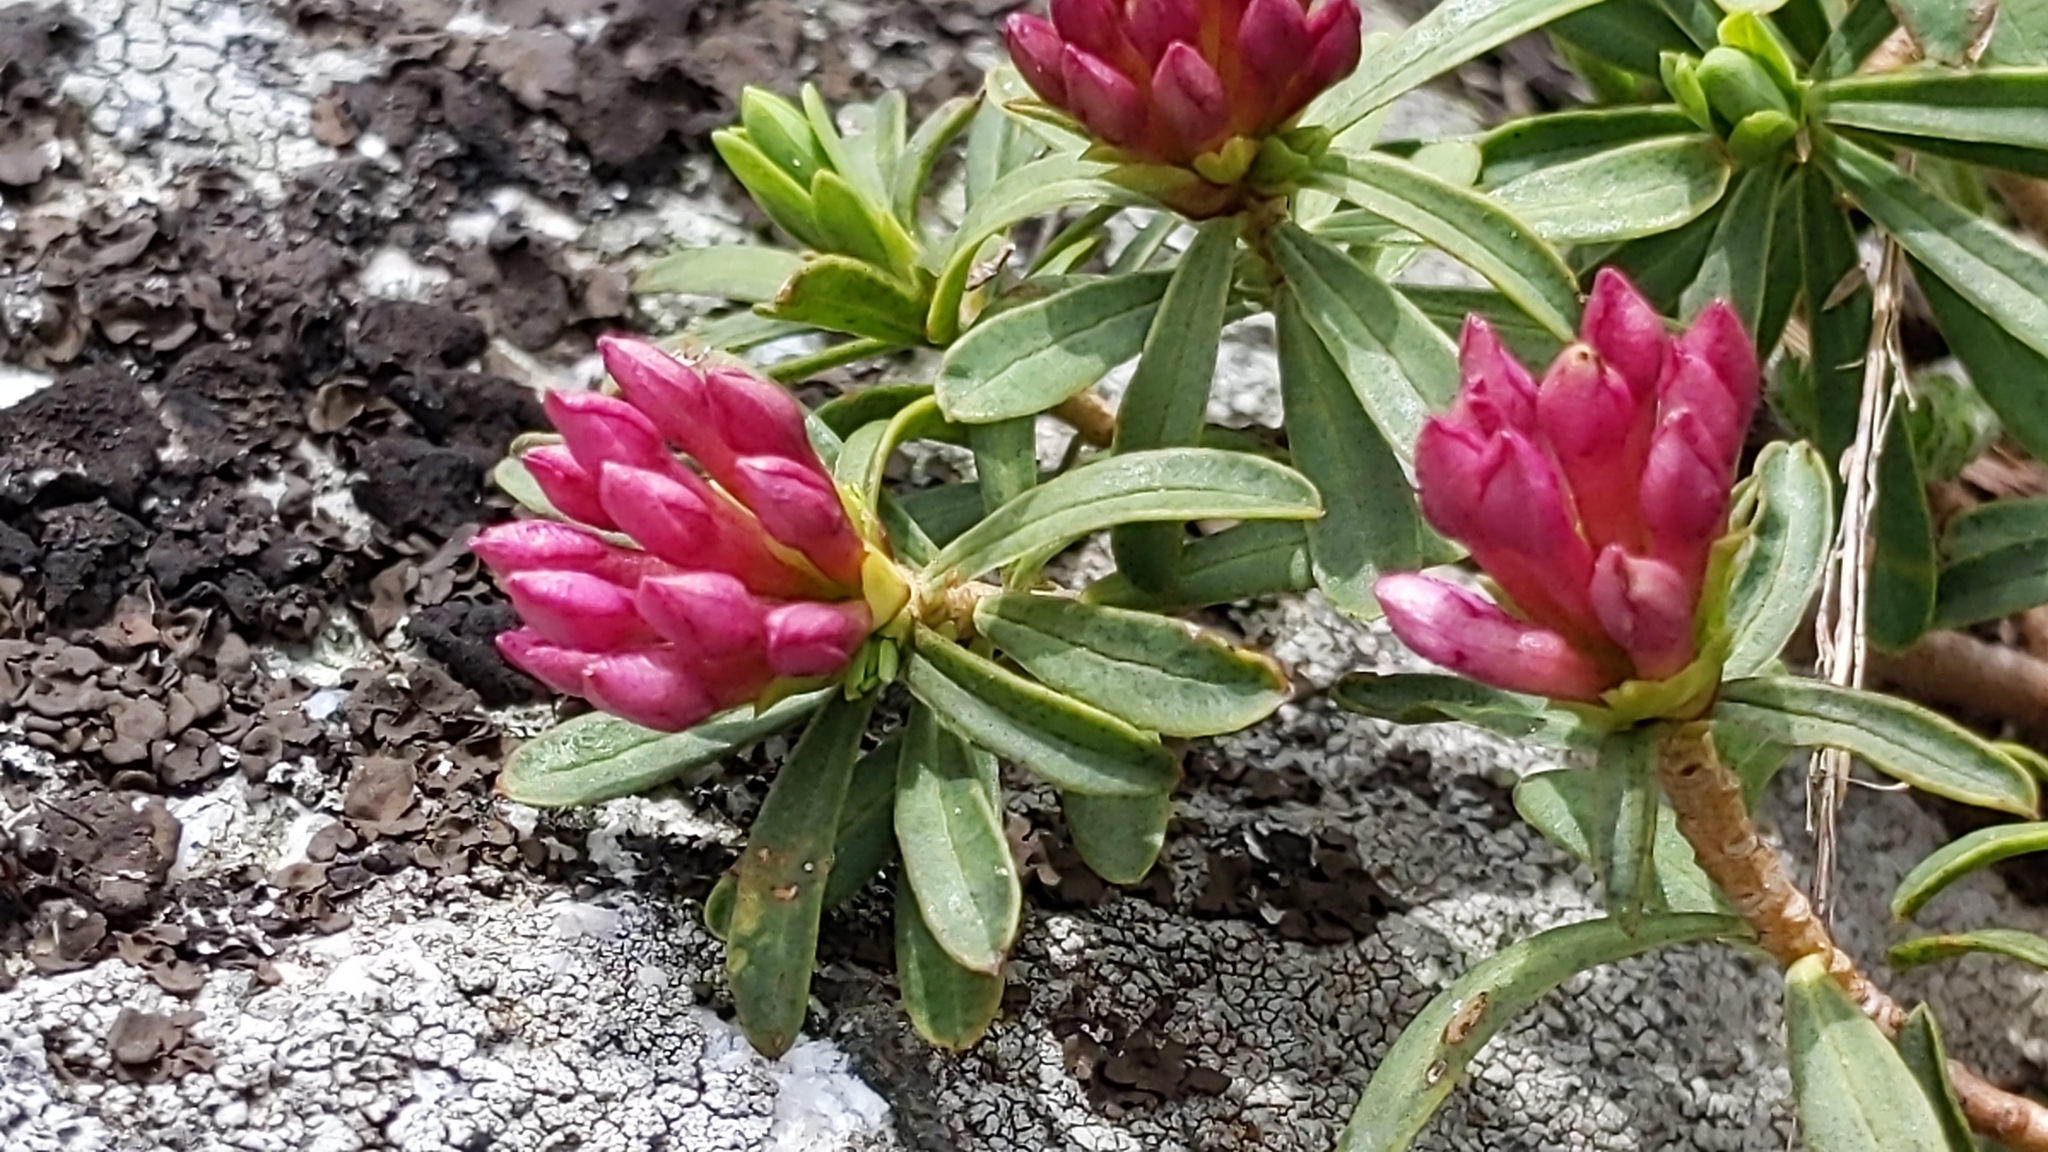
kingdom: Plantae
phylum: Tracheophyta
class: Magnoliopsida
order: Malvales
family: Thymelaeaceae
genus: Daphne
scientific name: Daphne striata
